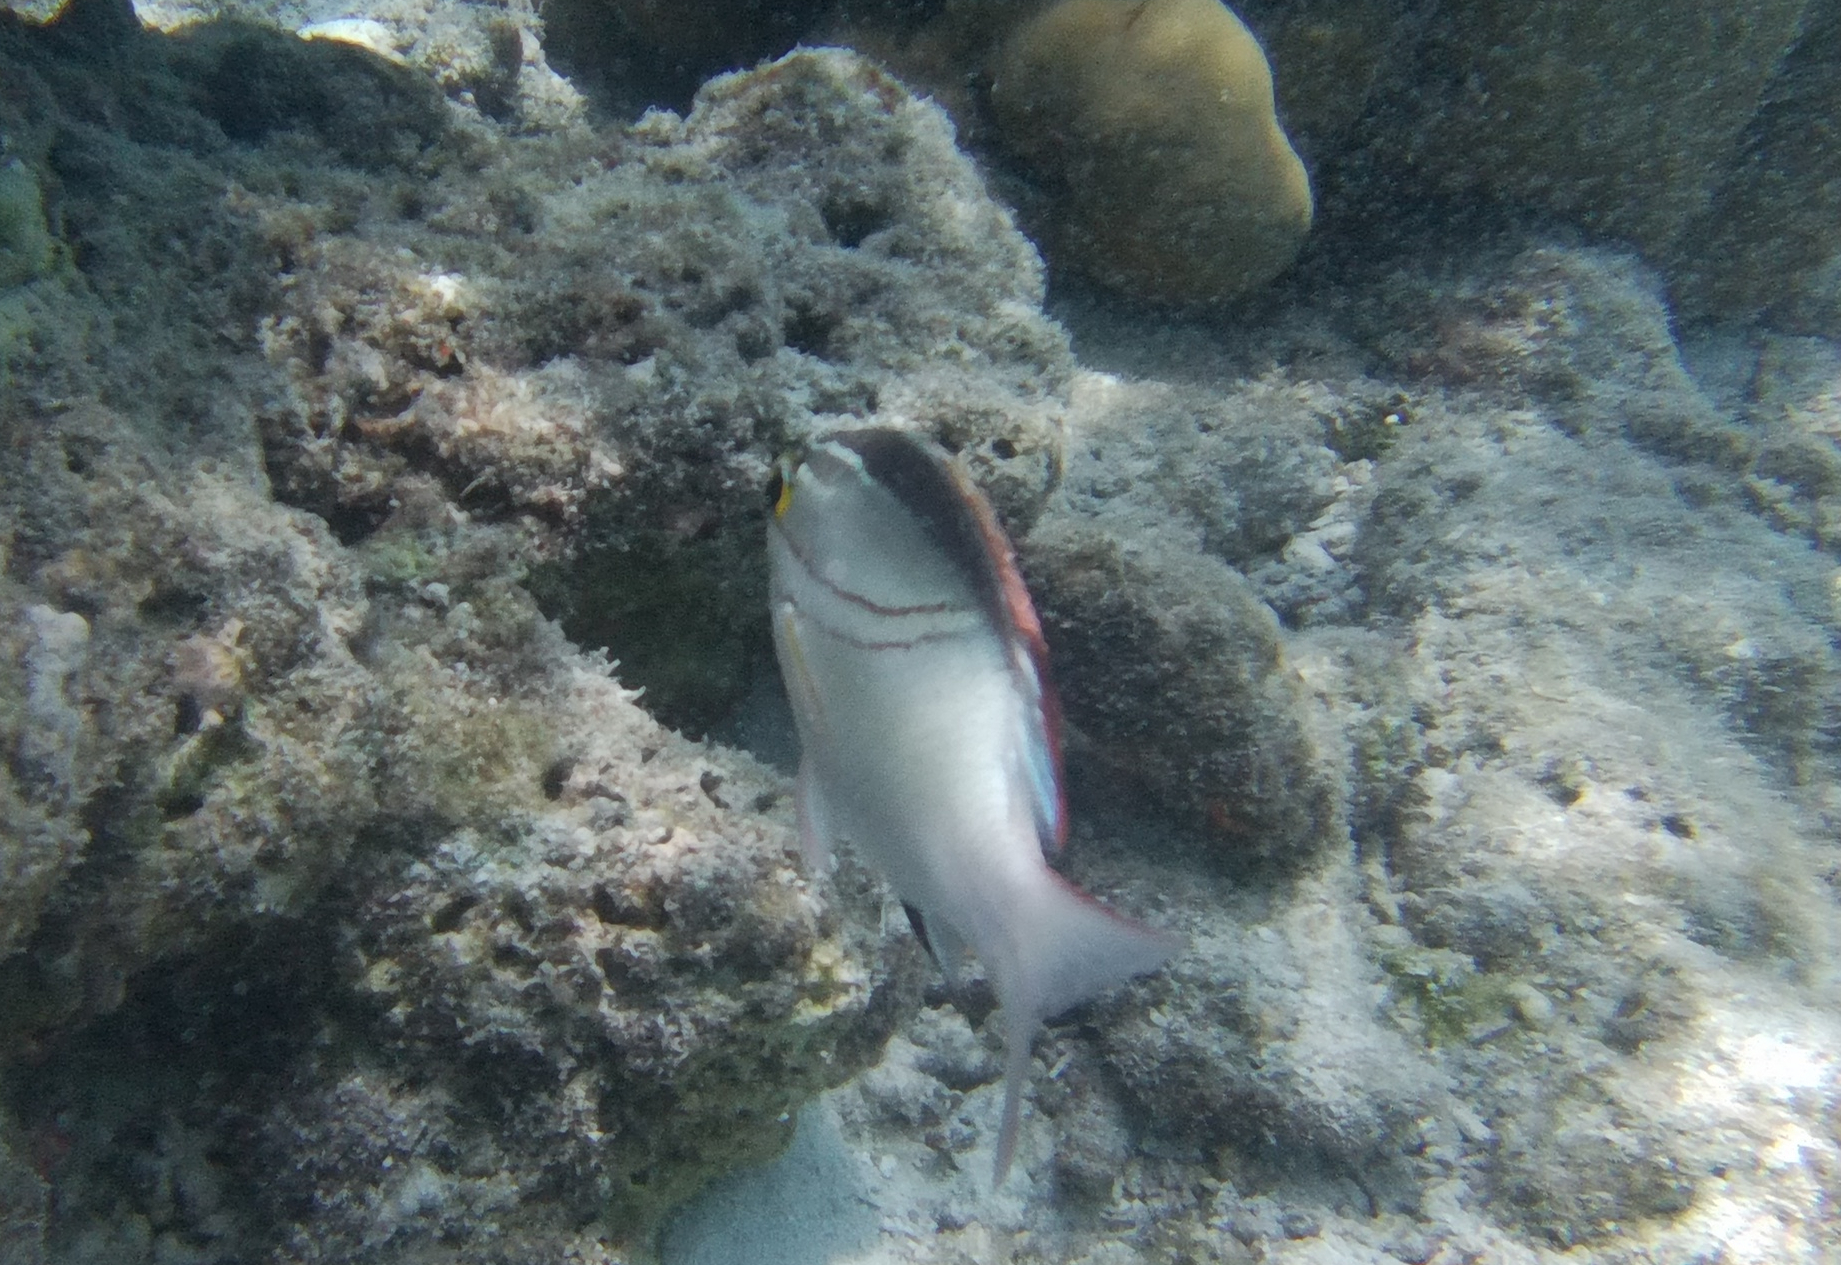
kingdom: Animalia
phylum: Chordata
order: Perciformes
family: Nemipteridae
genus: Scolopsis
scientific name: Scolopsis bilineata
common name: Two-lined monocle bream
